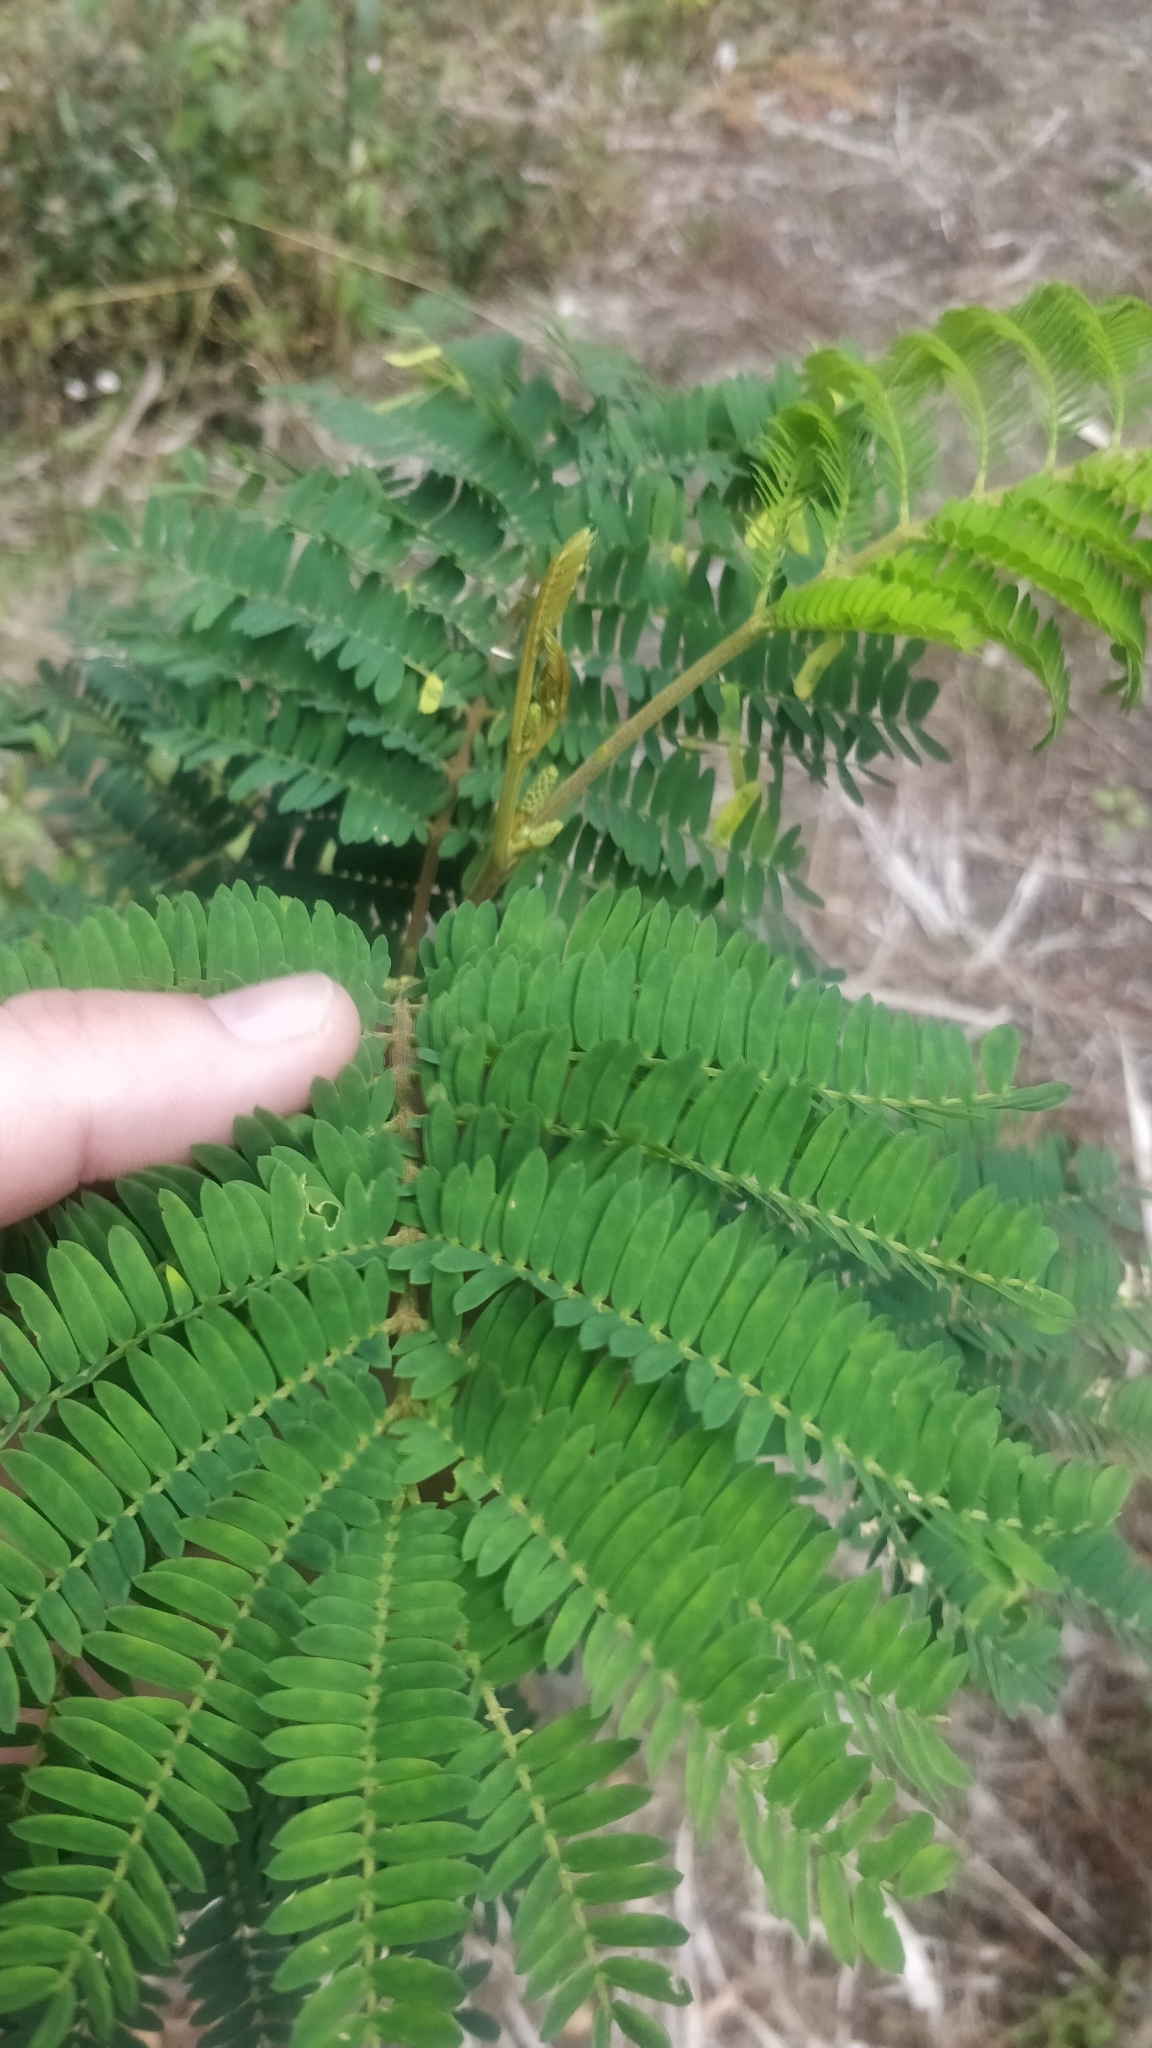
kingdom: Plantae
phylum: Tracheophyta
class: Magnoliopsida
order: Fabales
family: Fabaceae
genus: Paraserianthes
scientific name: Paraserianthes lophantha
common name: Plume albizia
